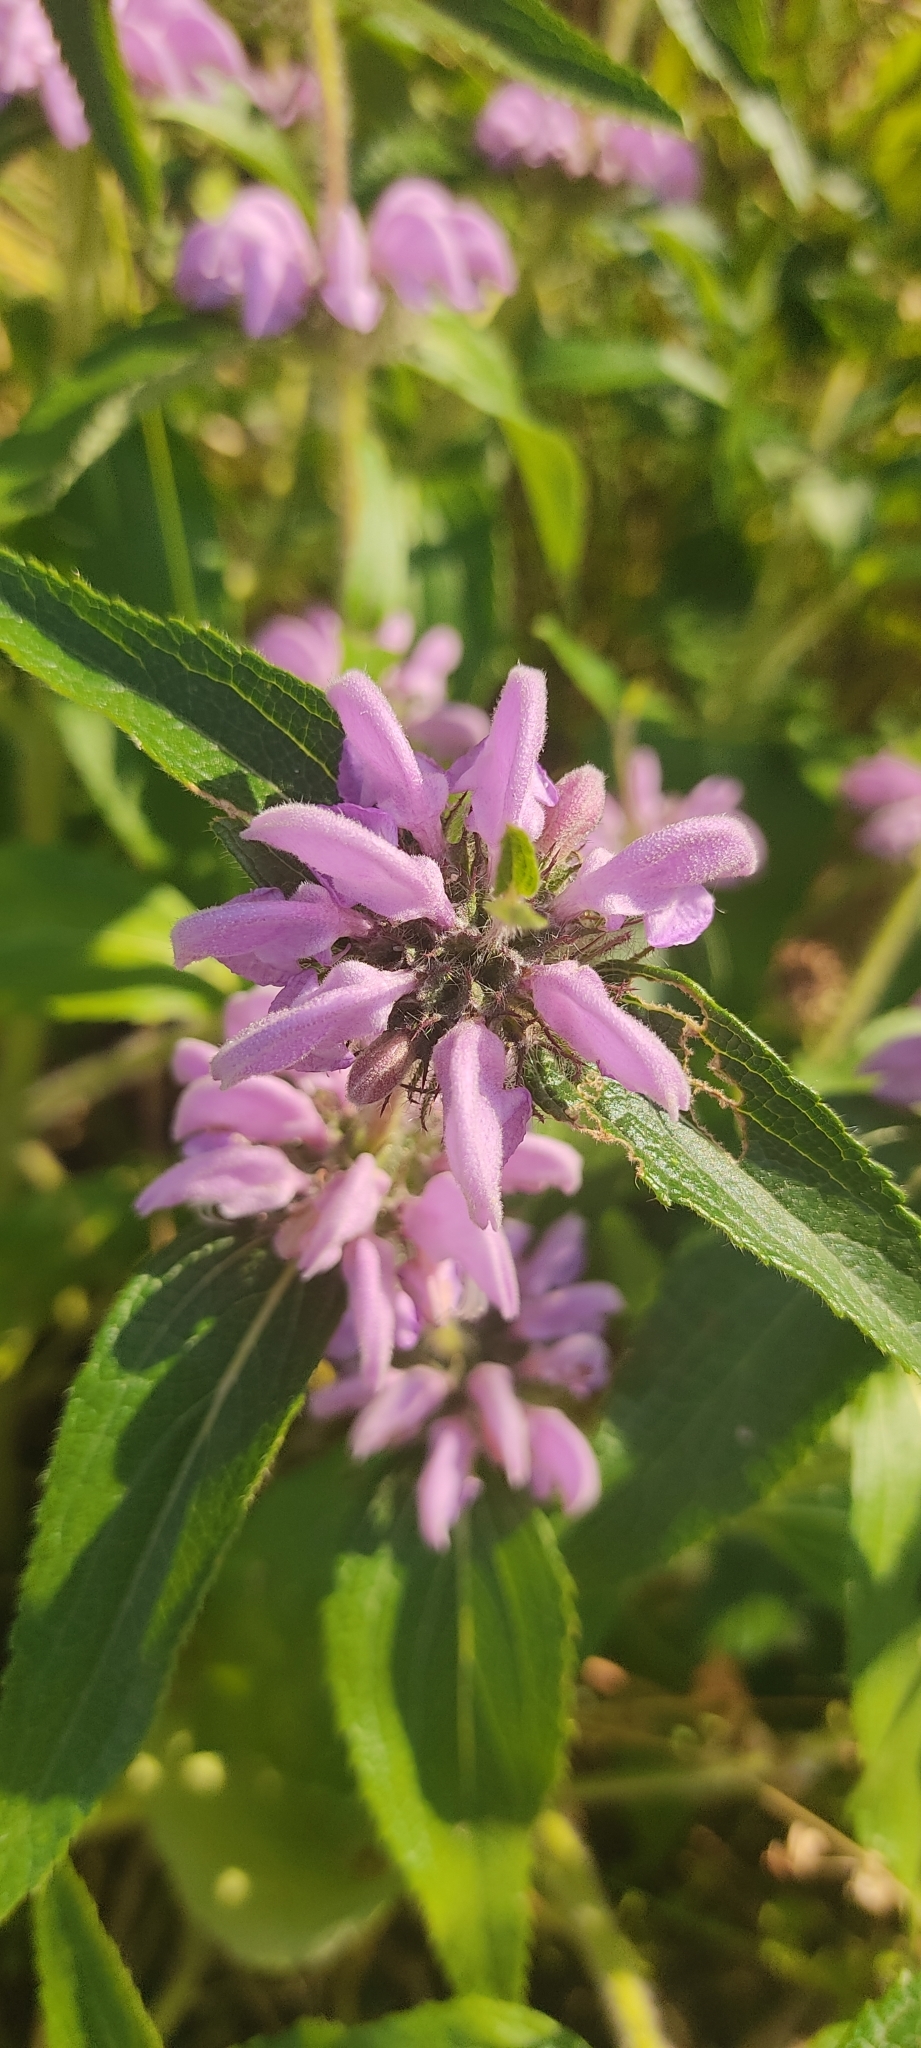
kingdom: Plantae
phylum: Tracheophyta
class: Magnoliopsida
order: Lamiales
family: Lamiaceae
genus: Phlomis
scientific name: Phlomis herba-venti
